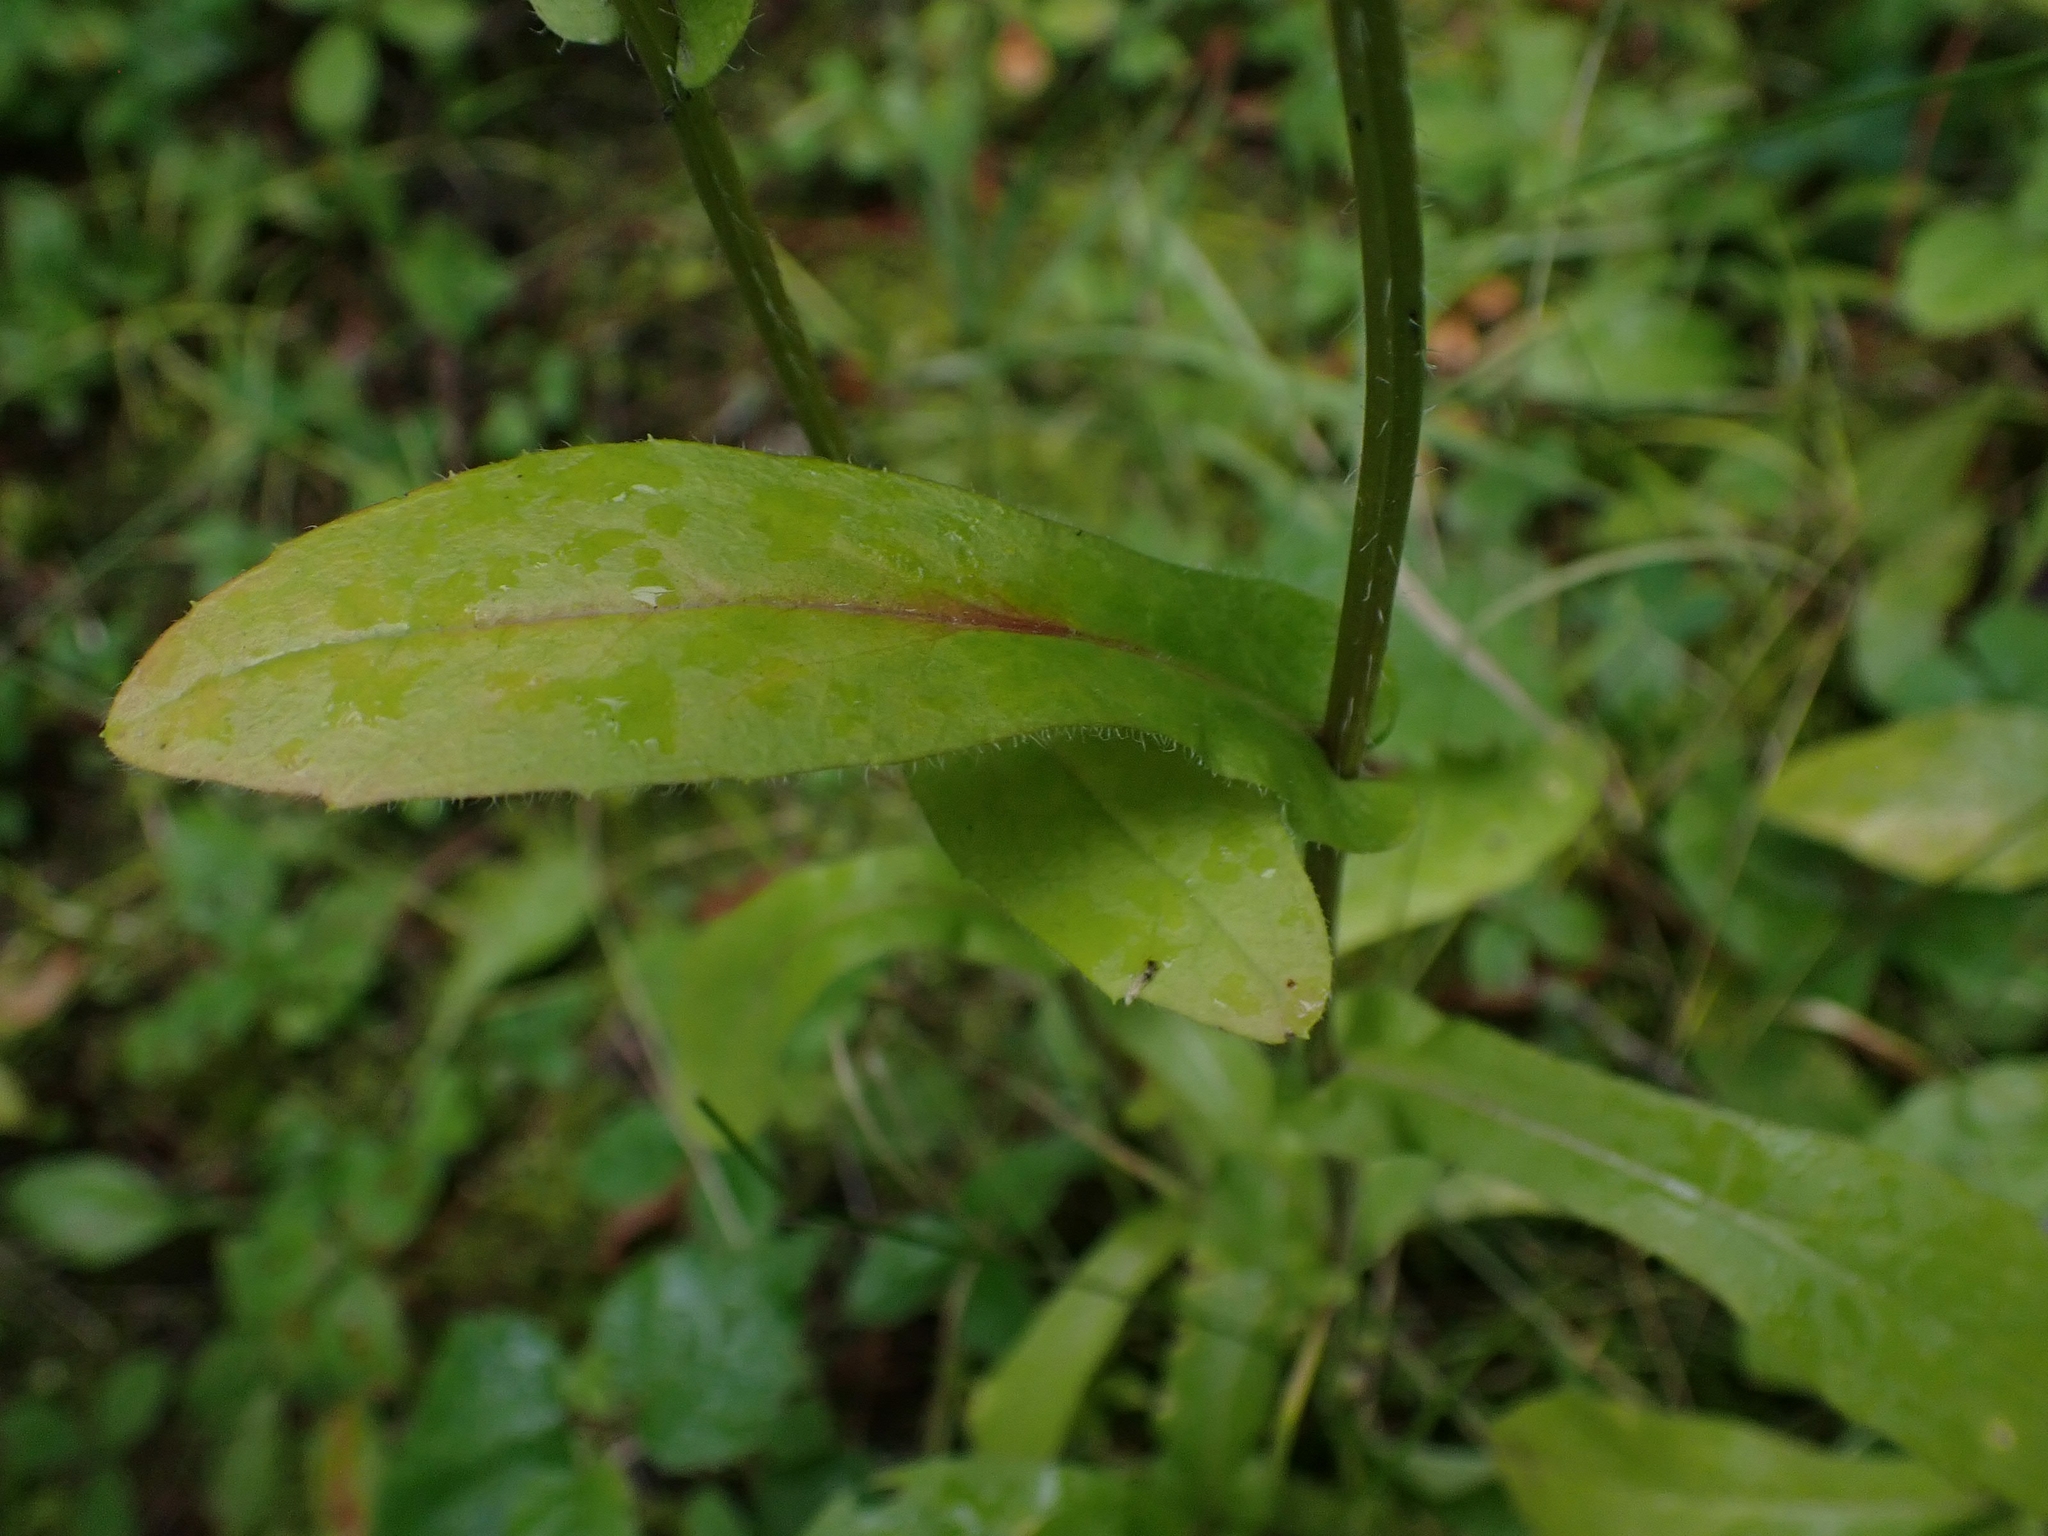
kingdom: Plantae
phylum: Tracheophyta
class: Magnoliopsida
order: Asterales
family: Asteraceae
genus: Erigeron
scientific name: Erigeron philadelphicus
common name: Robin's-plantain
